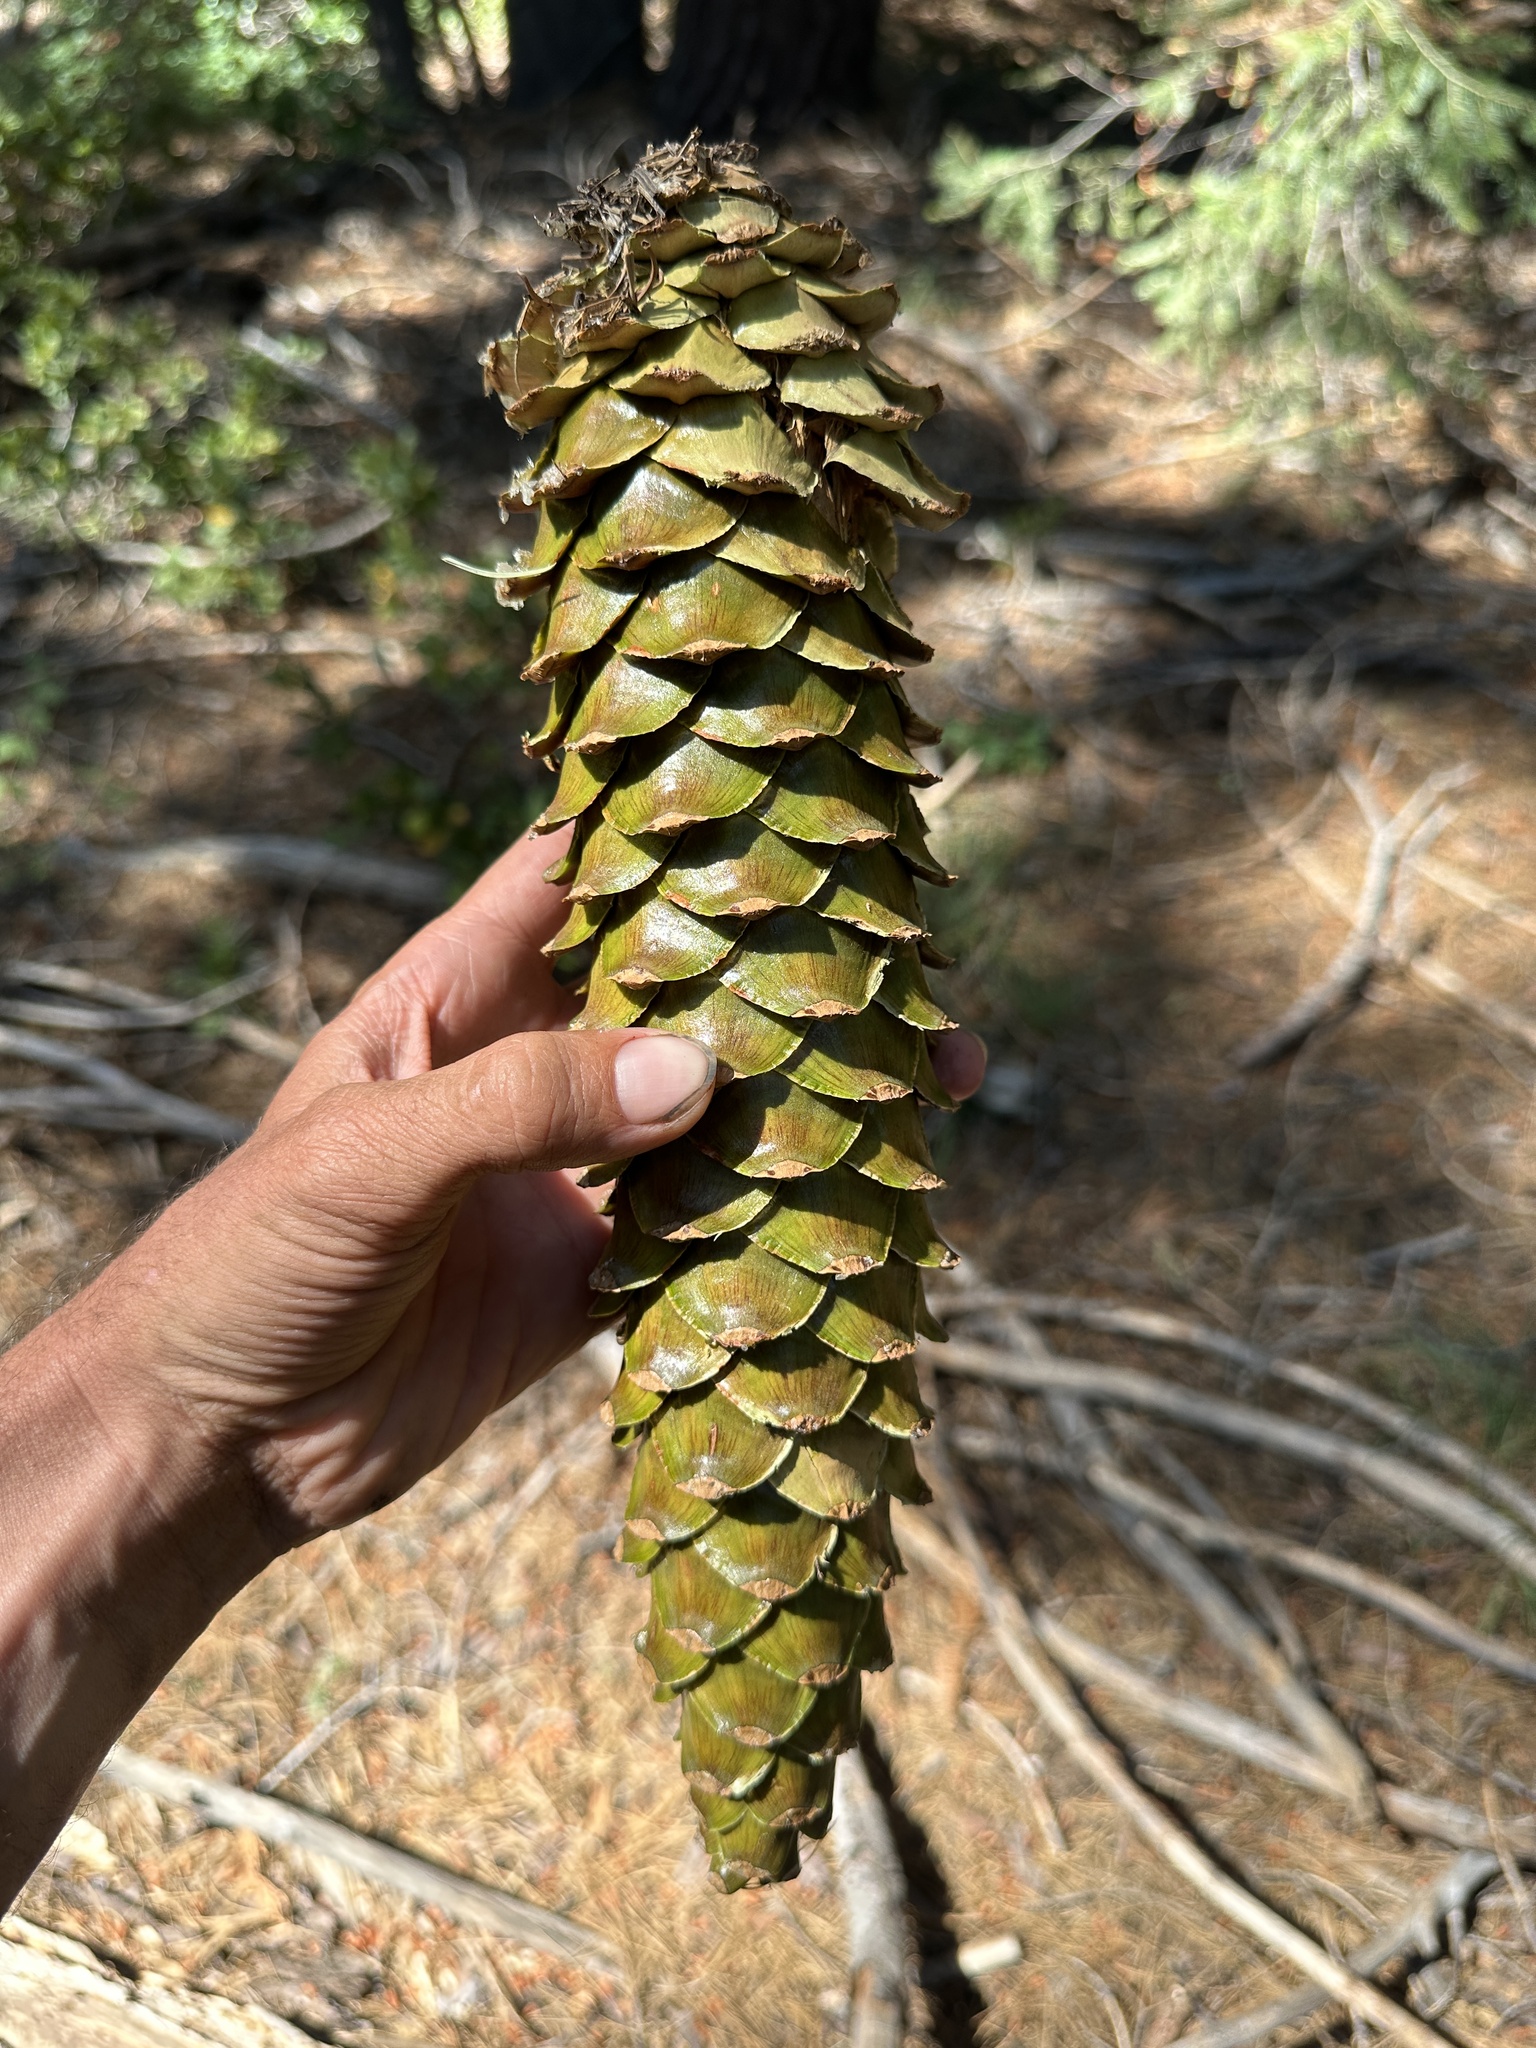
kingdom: Plantae
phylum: Tracheophyta
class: Pinopsida
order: Pinales
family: Pinaceae
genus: Pinus
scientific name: Pinus lambertiana
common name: Sugar pine
